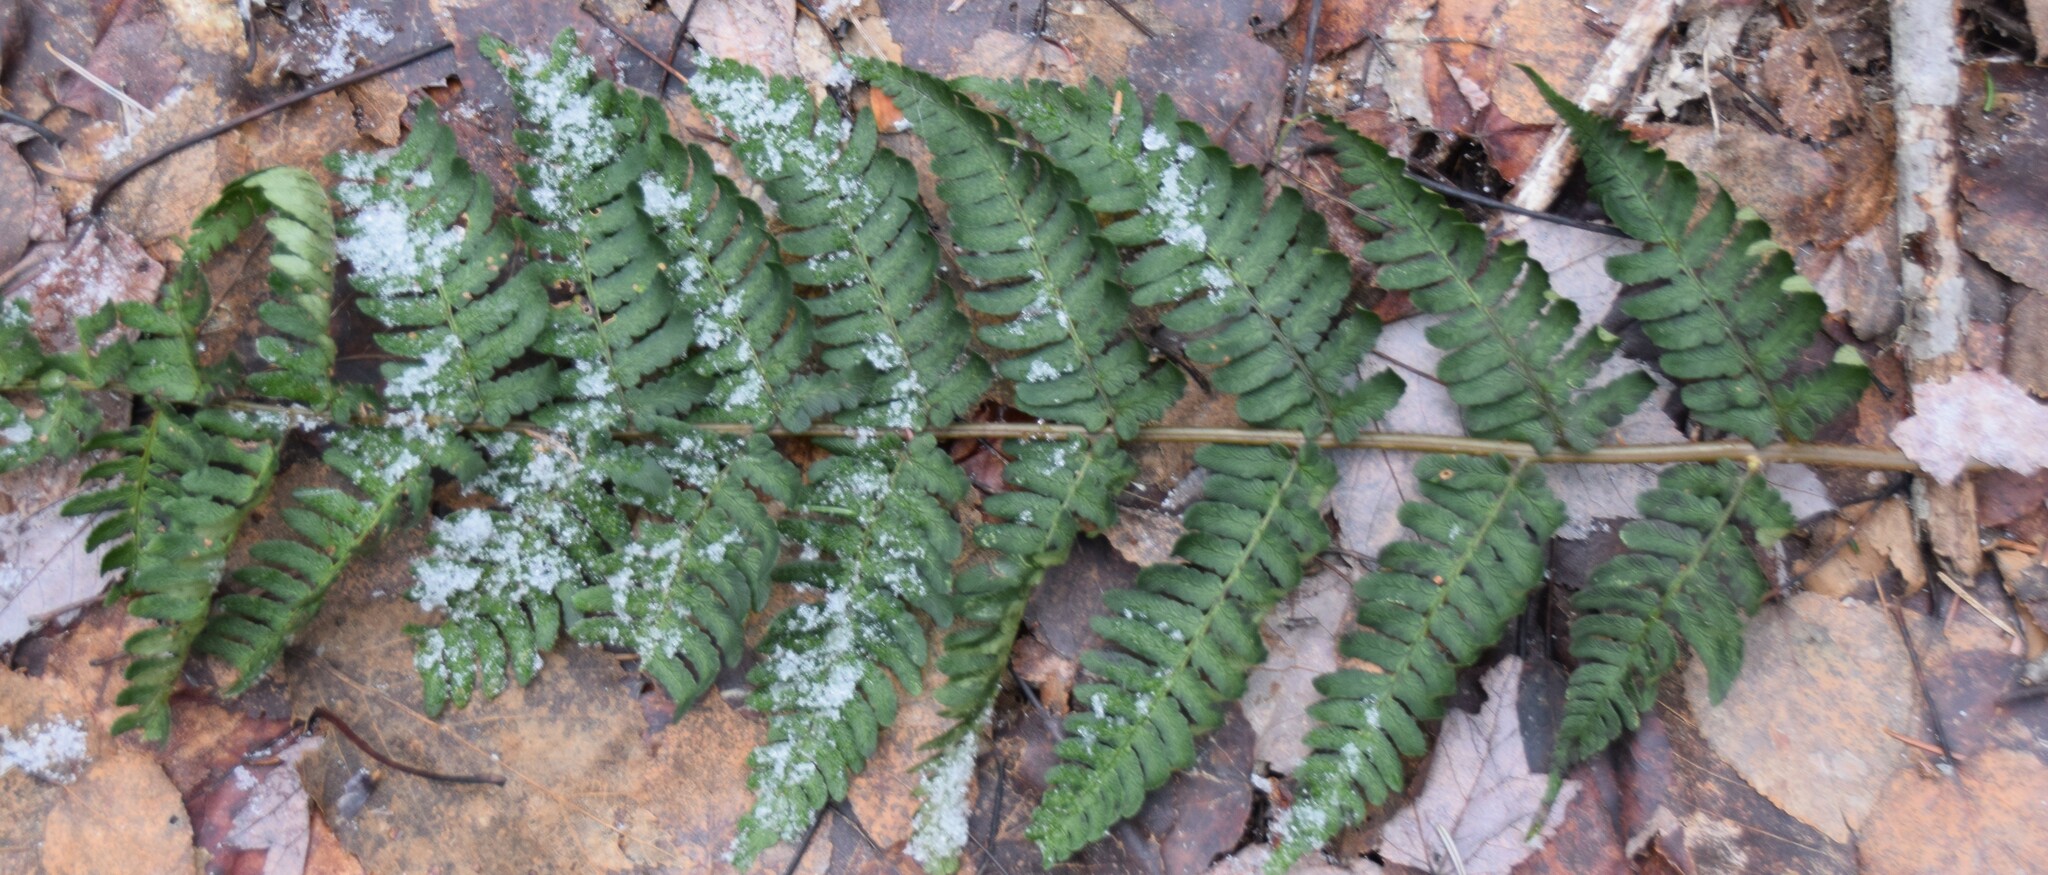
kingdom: Plantae
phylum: Tracheophyta
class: Polypodiopsida
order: Polypodiales
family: Dryopteridaceae
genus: Dryopteris
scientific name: Dryopteris marginalis
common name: Marginal wood fern
